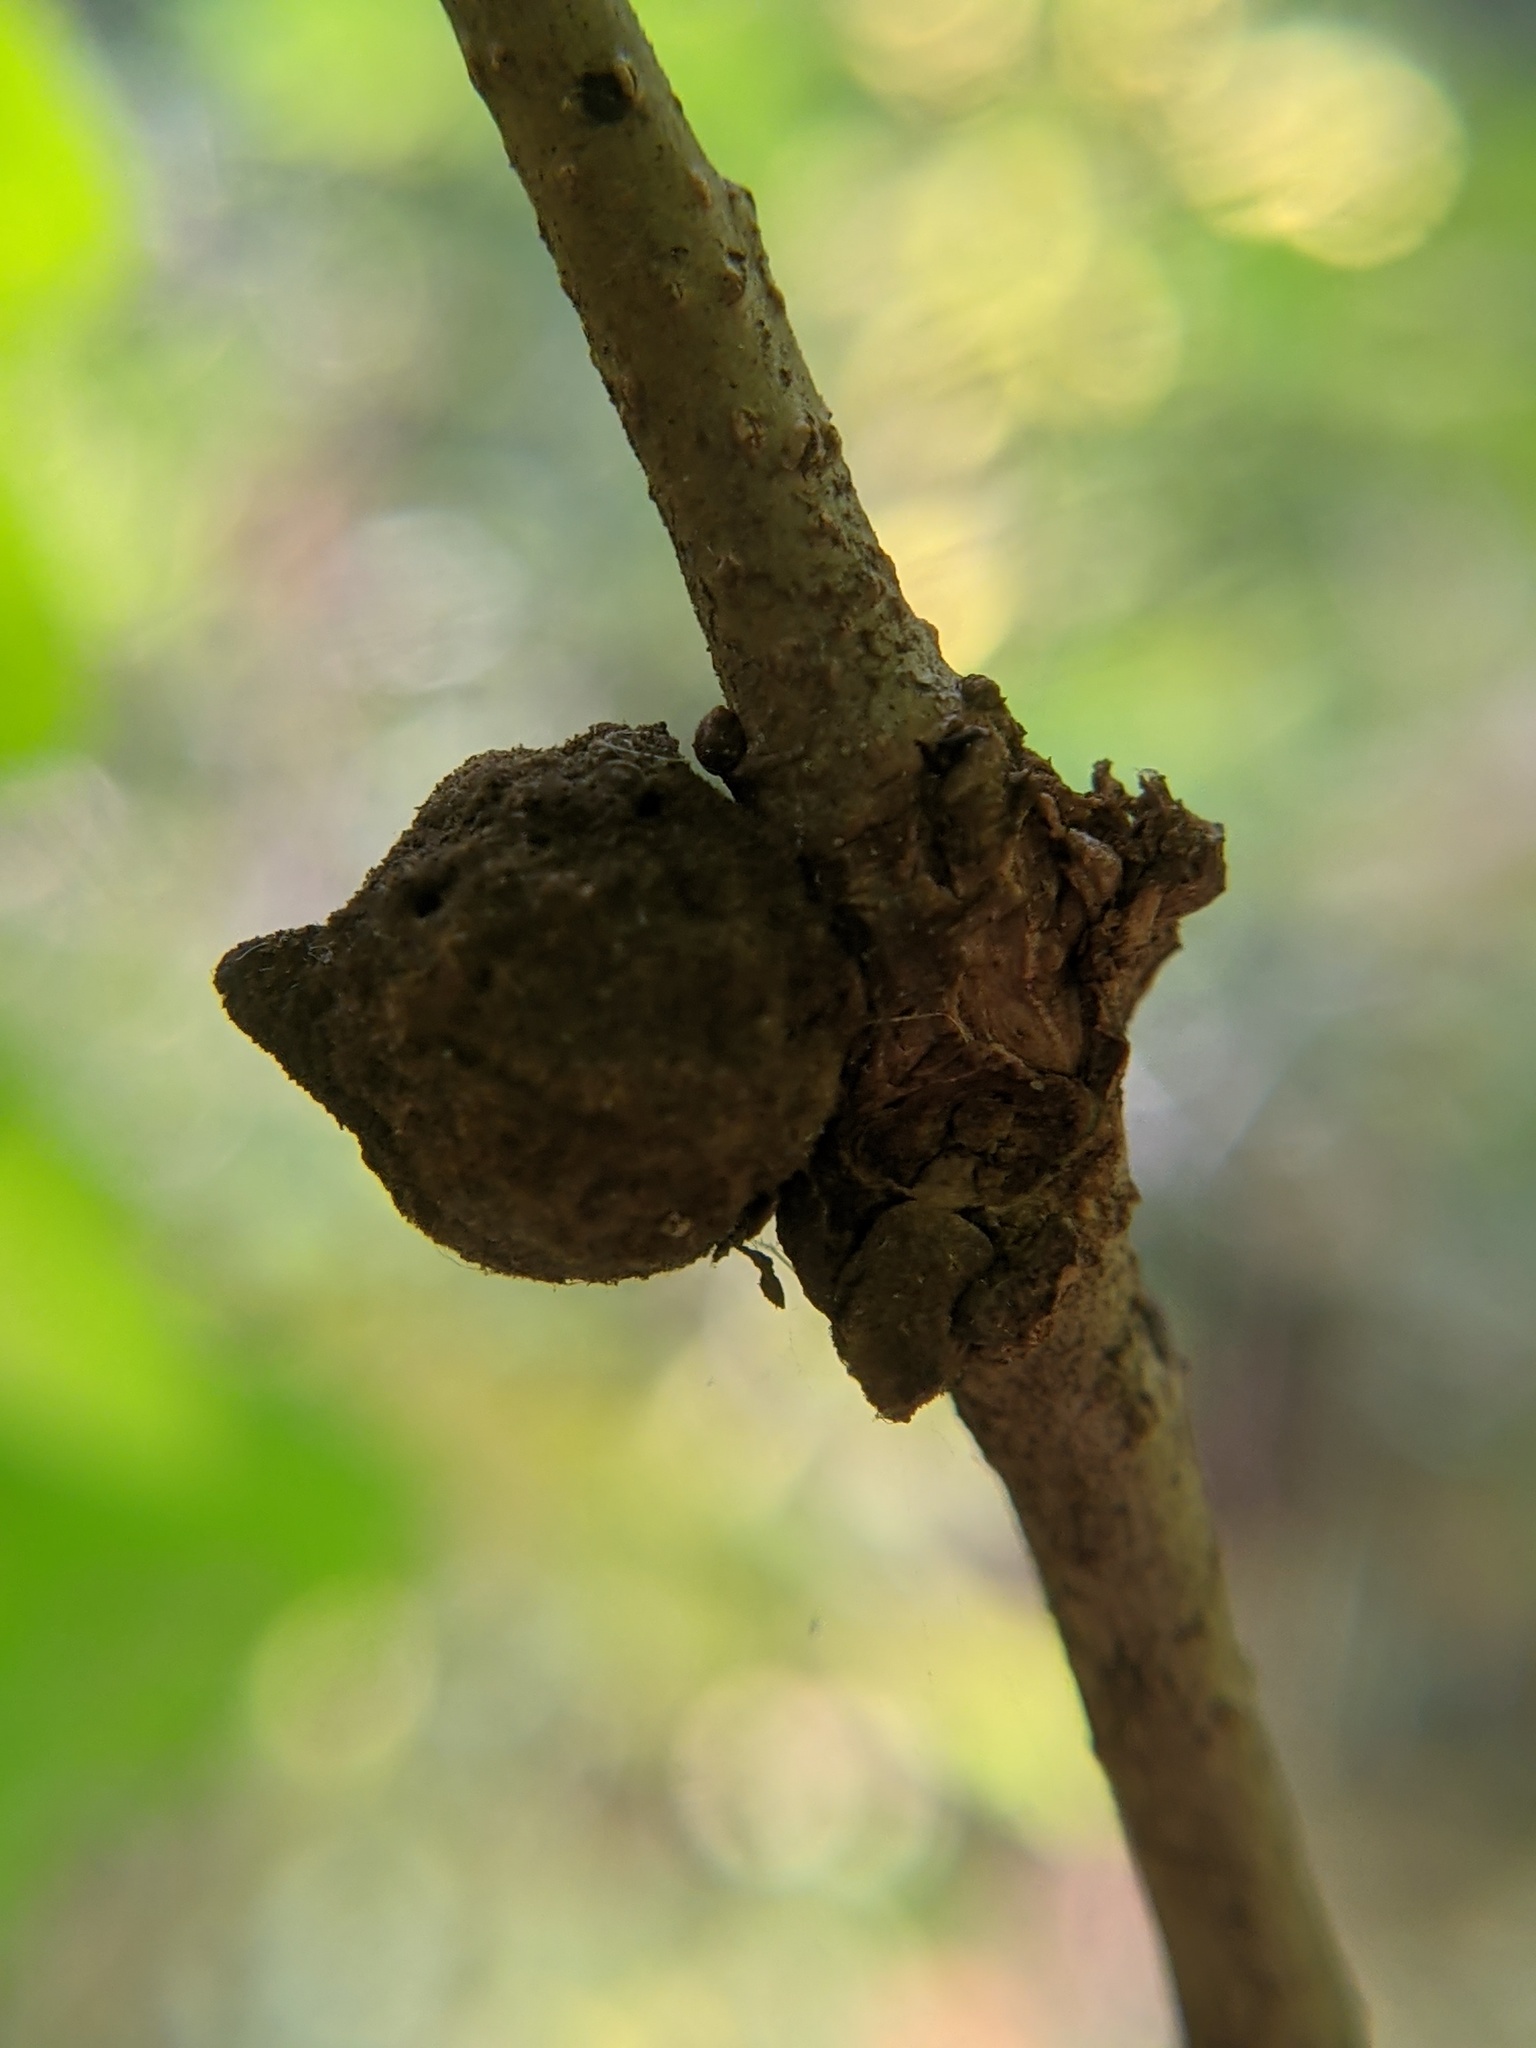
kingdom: Animalia
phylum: Arthropoda
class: Insecta
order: Hymenoptera
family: Cynipidae
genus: Disholcaspis
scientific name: Disholcaspis
